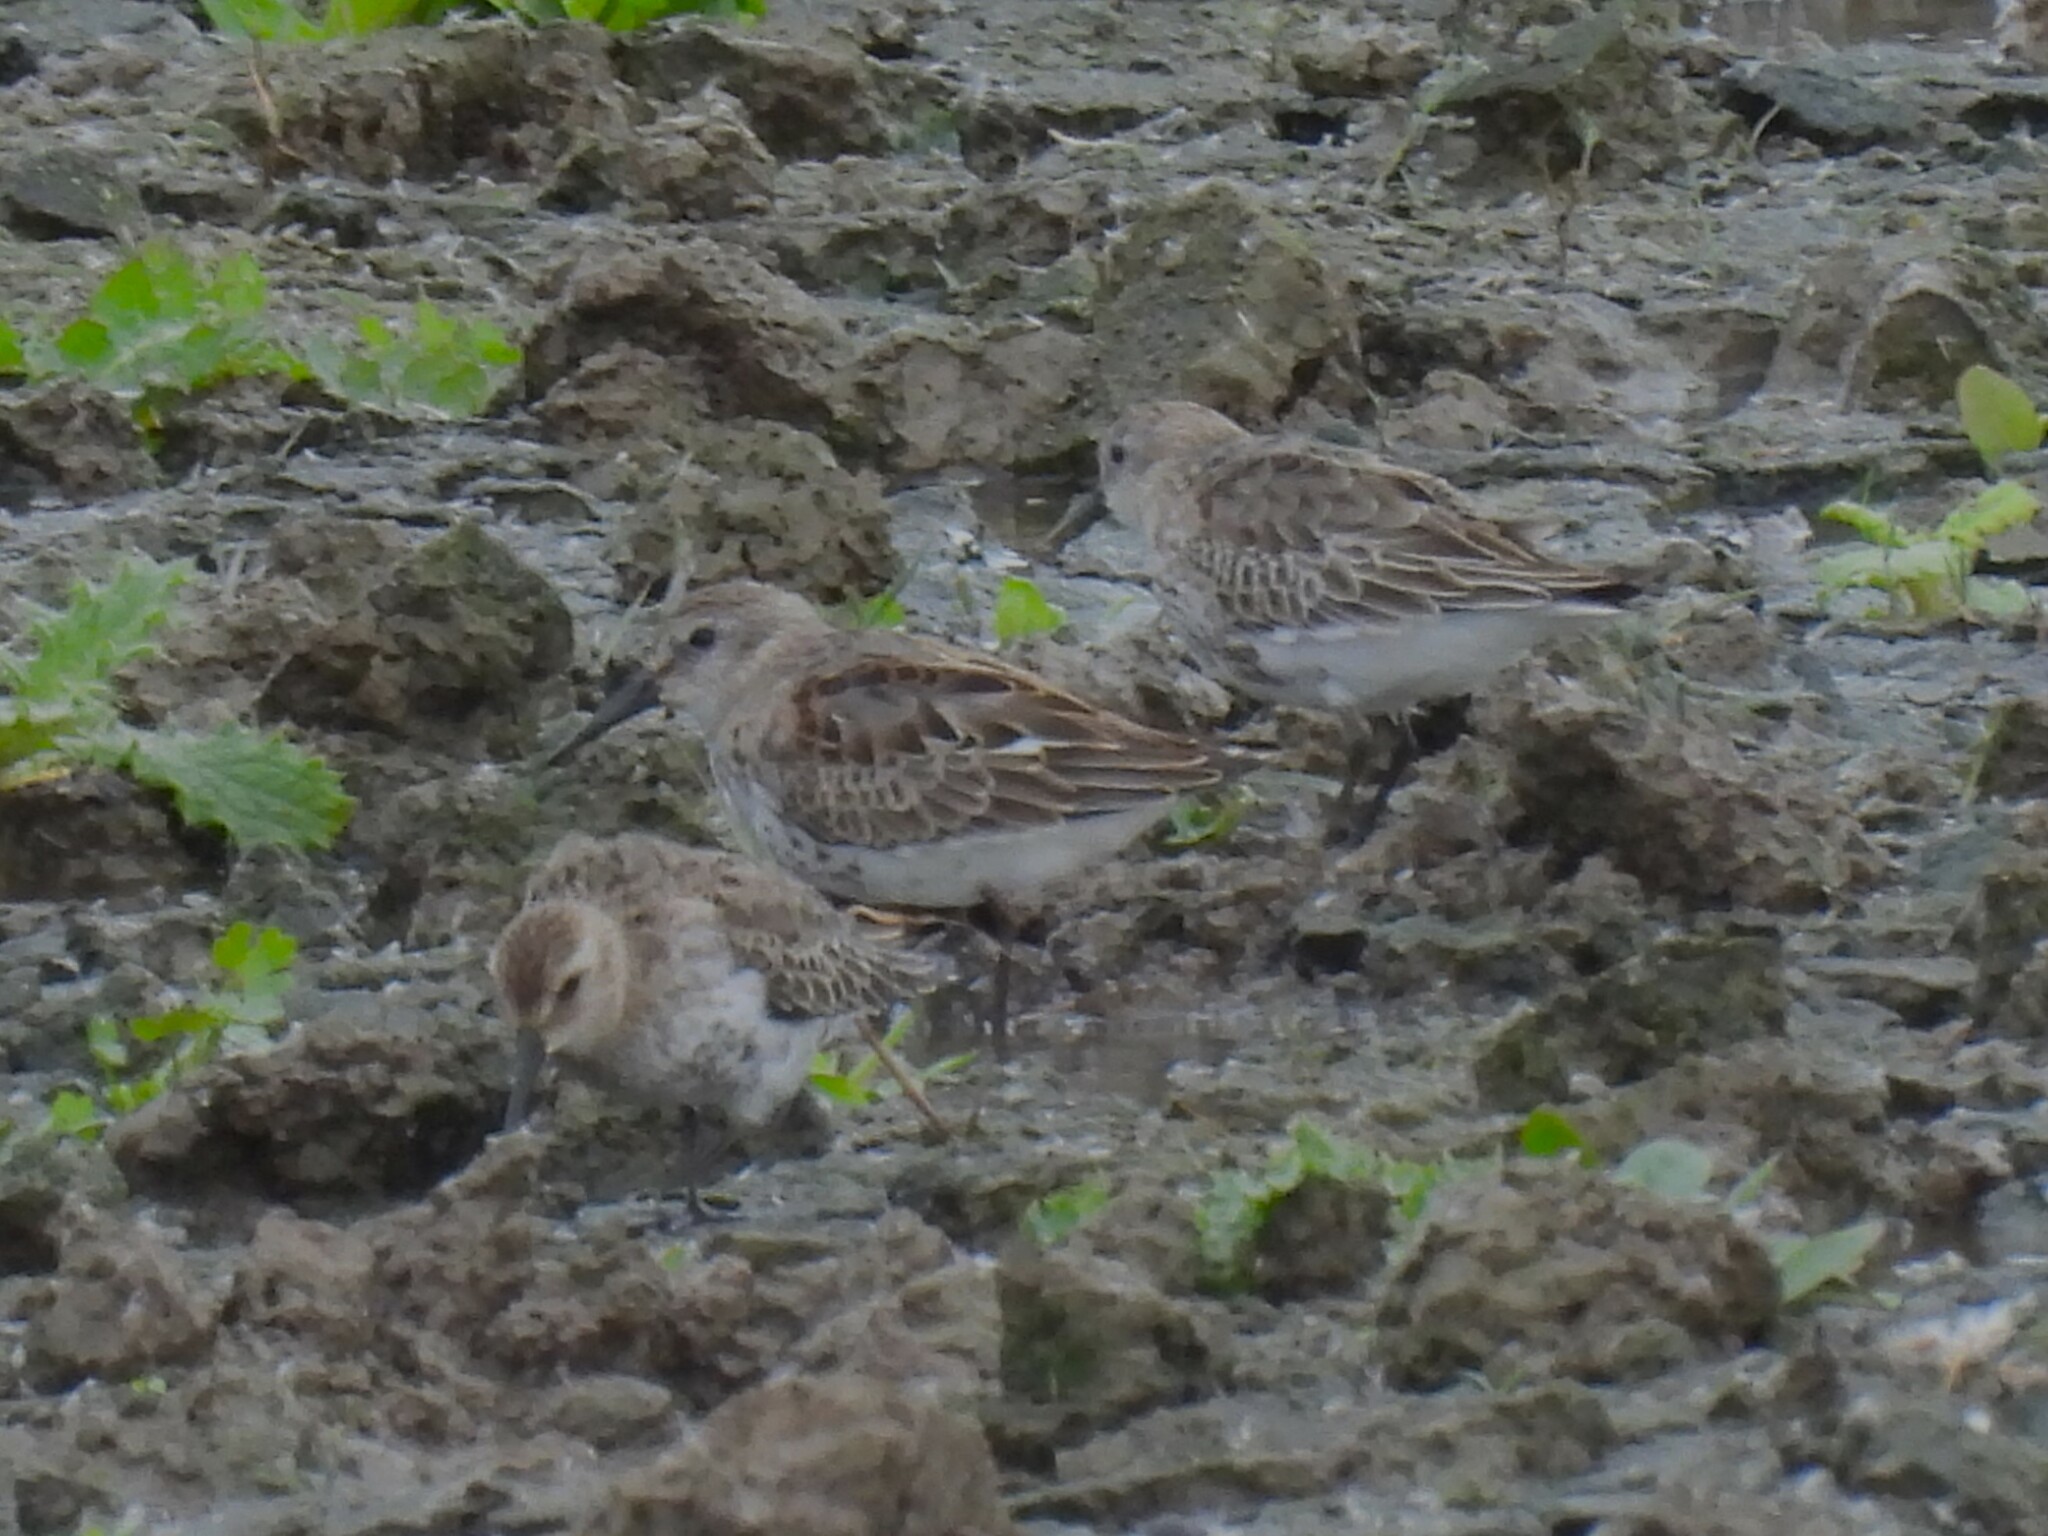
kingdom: Animalia
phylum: Chordata
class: Aves
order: Charadriiformes
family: Scolopacidae
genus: Calidris
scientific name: Calidris alpina
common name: Dunlin
